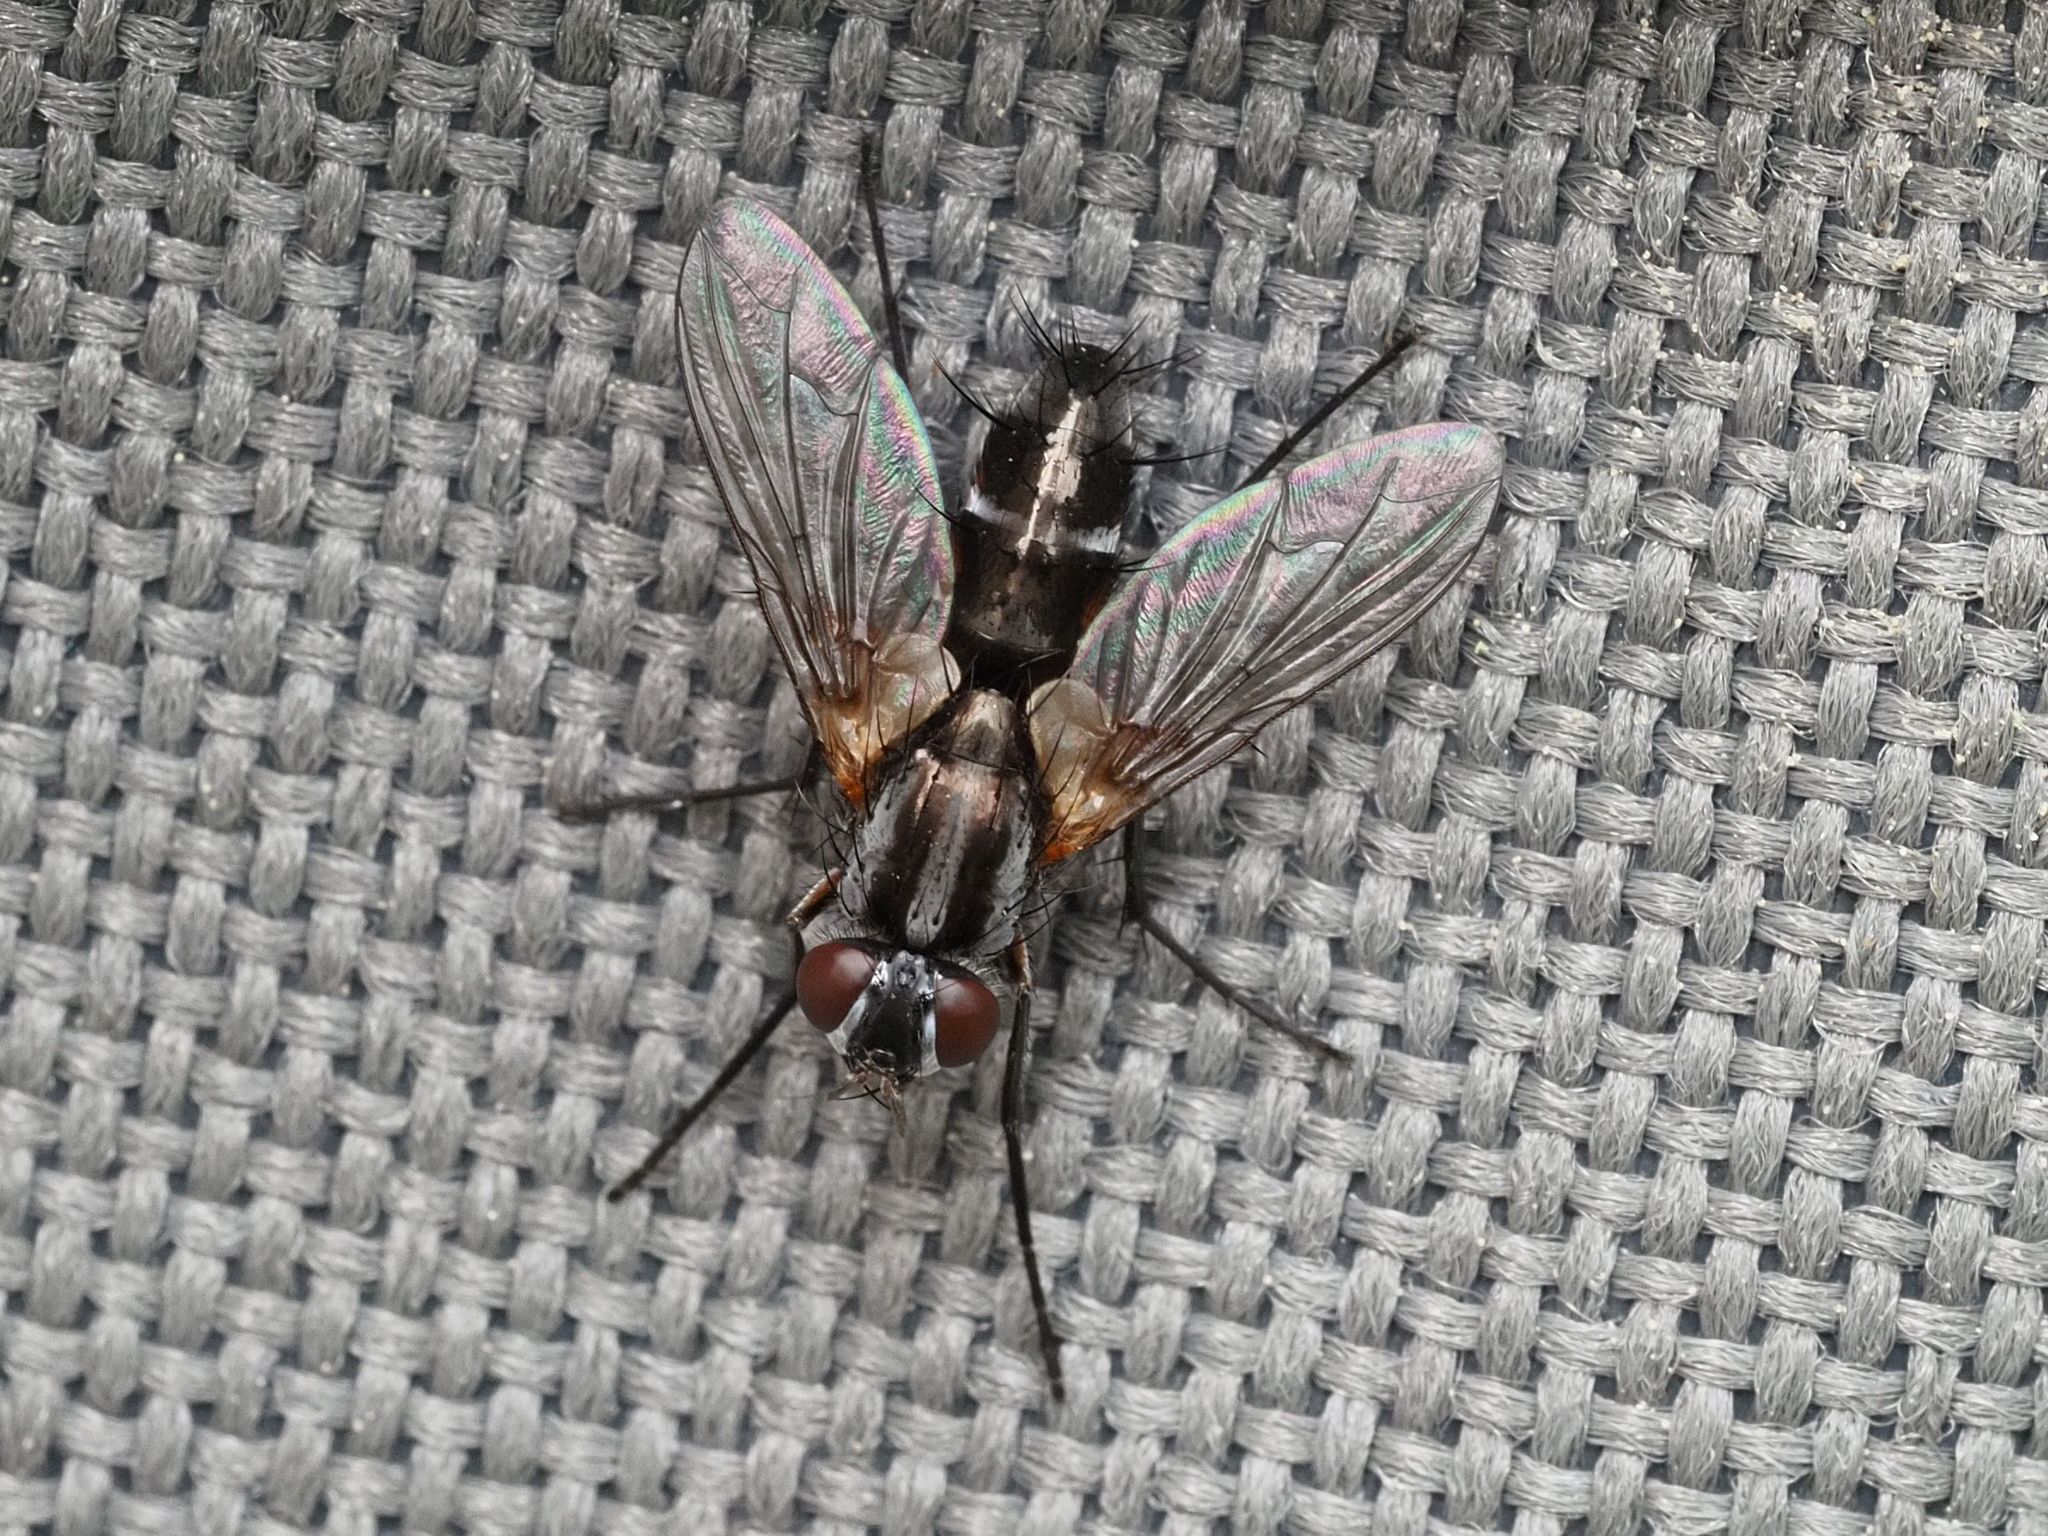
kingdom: Animalia
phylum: Arthropoda
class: Insecta
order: Diptera
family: Tachinidae
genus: Mintho
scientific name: Mintho rufiventris
